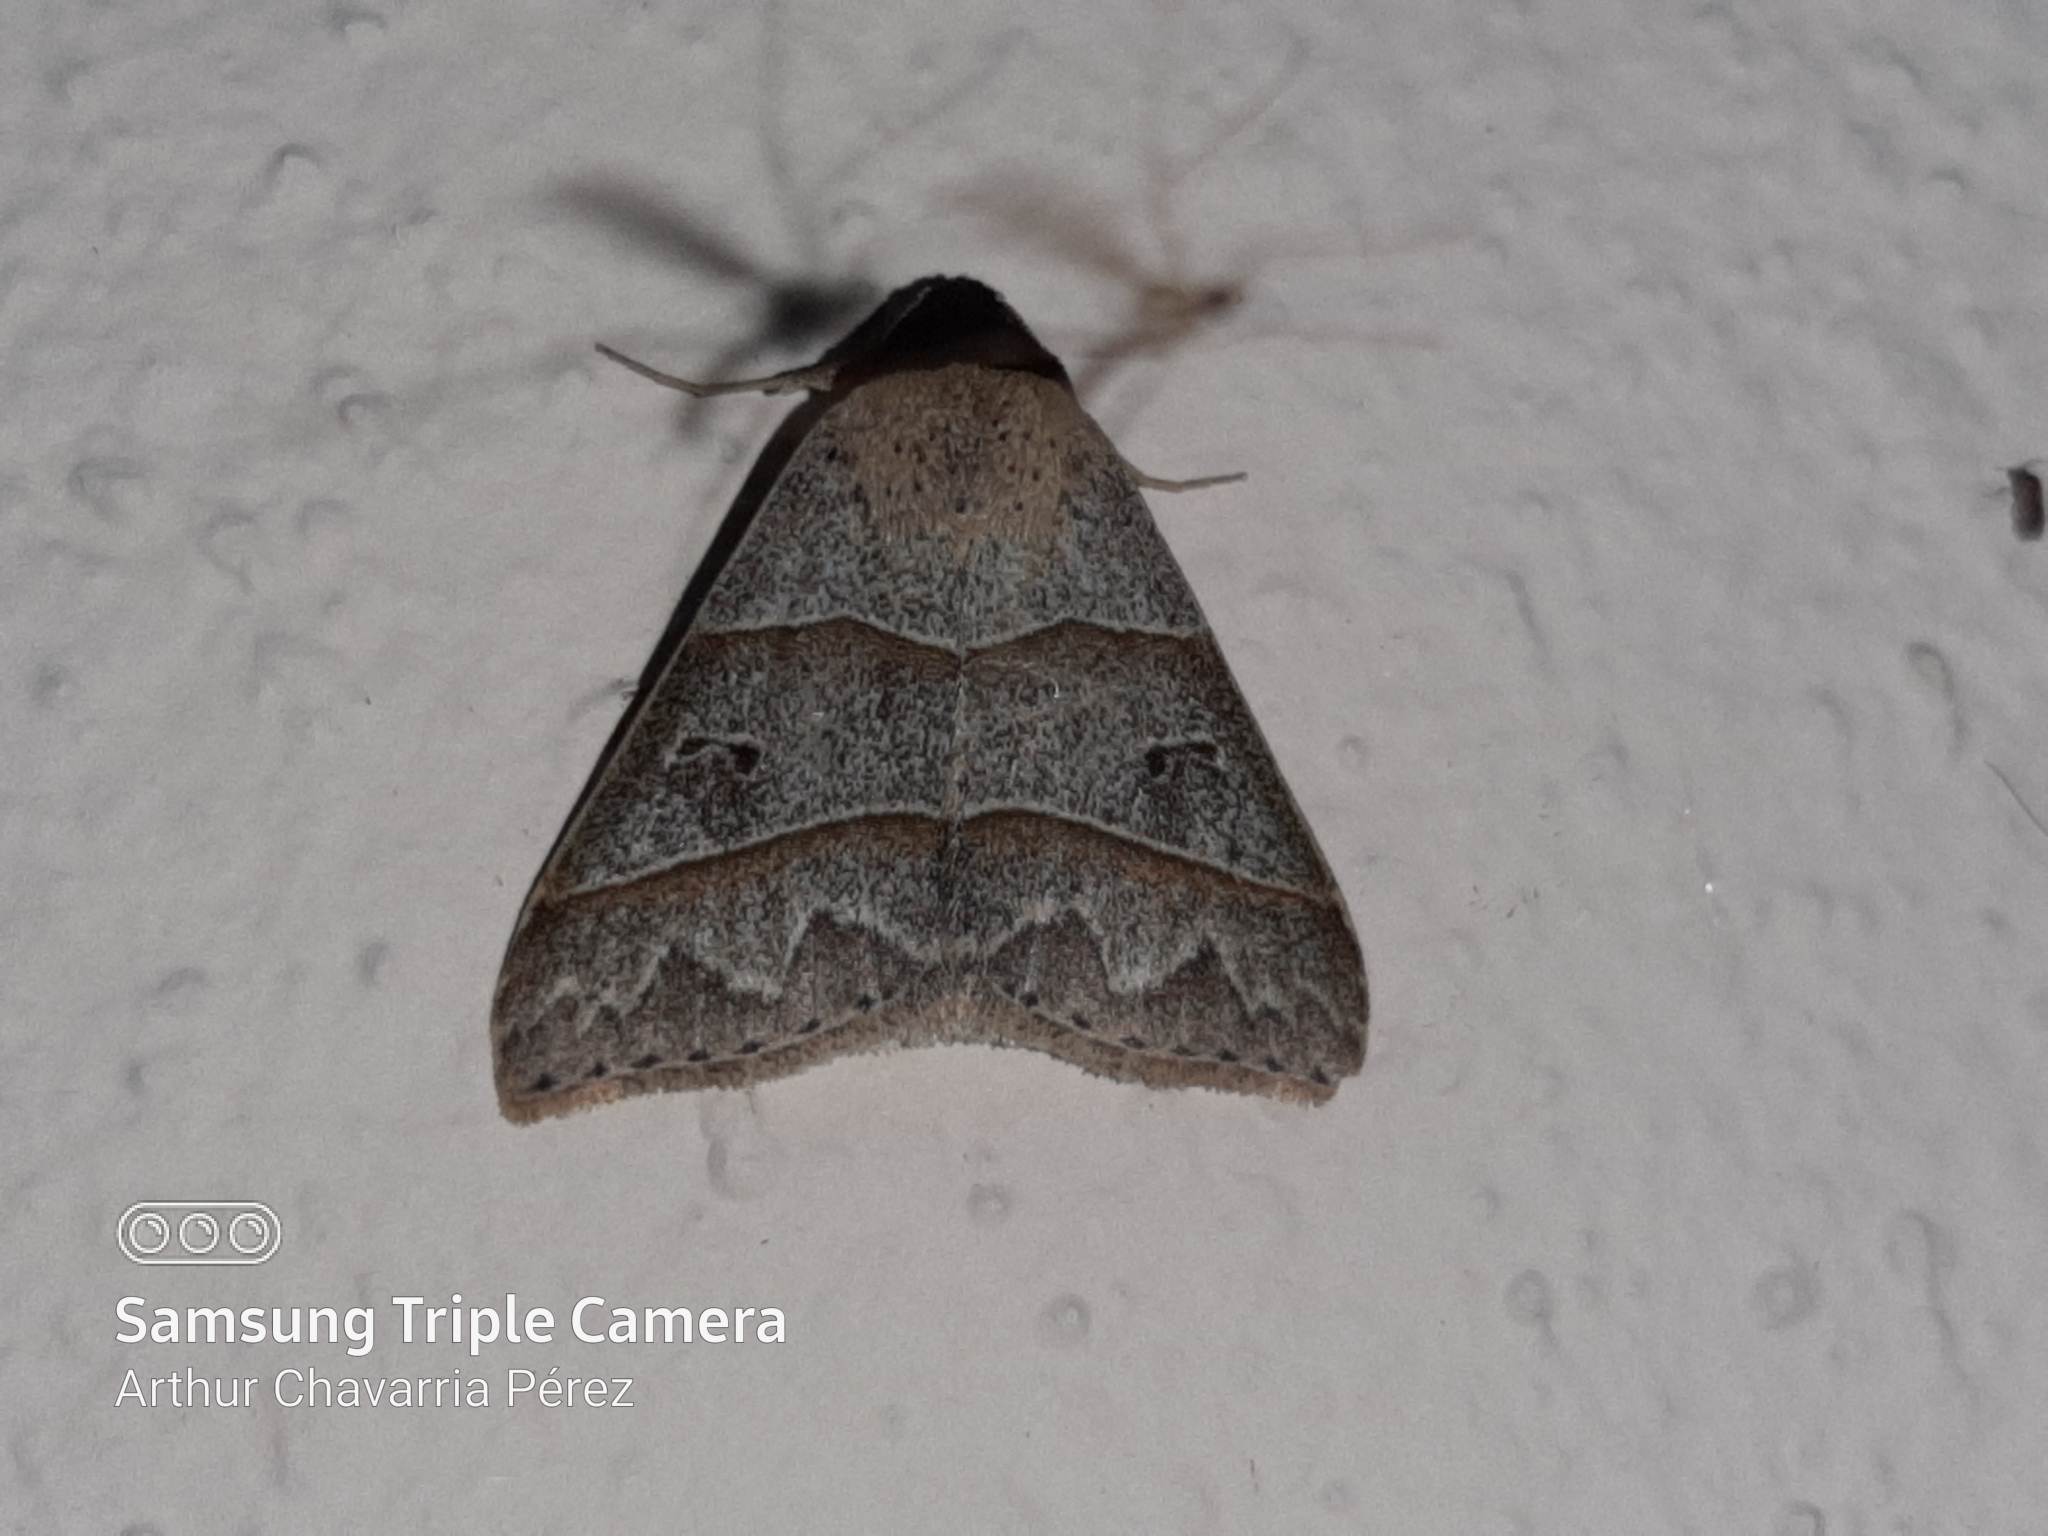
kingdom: Animalia
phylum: Arthropoda
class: Insecta
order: Lepidoptera
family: Erebidae
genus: Baniana
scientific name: Baniana ostia
